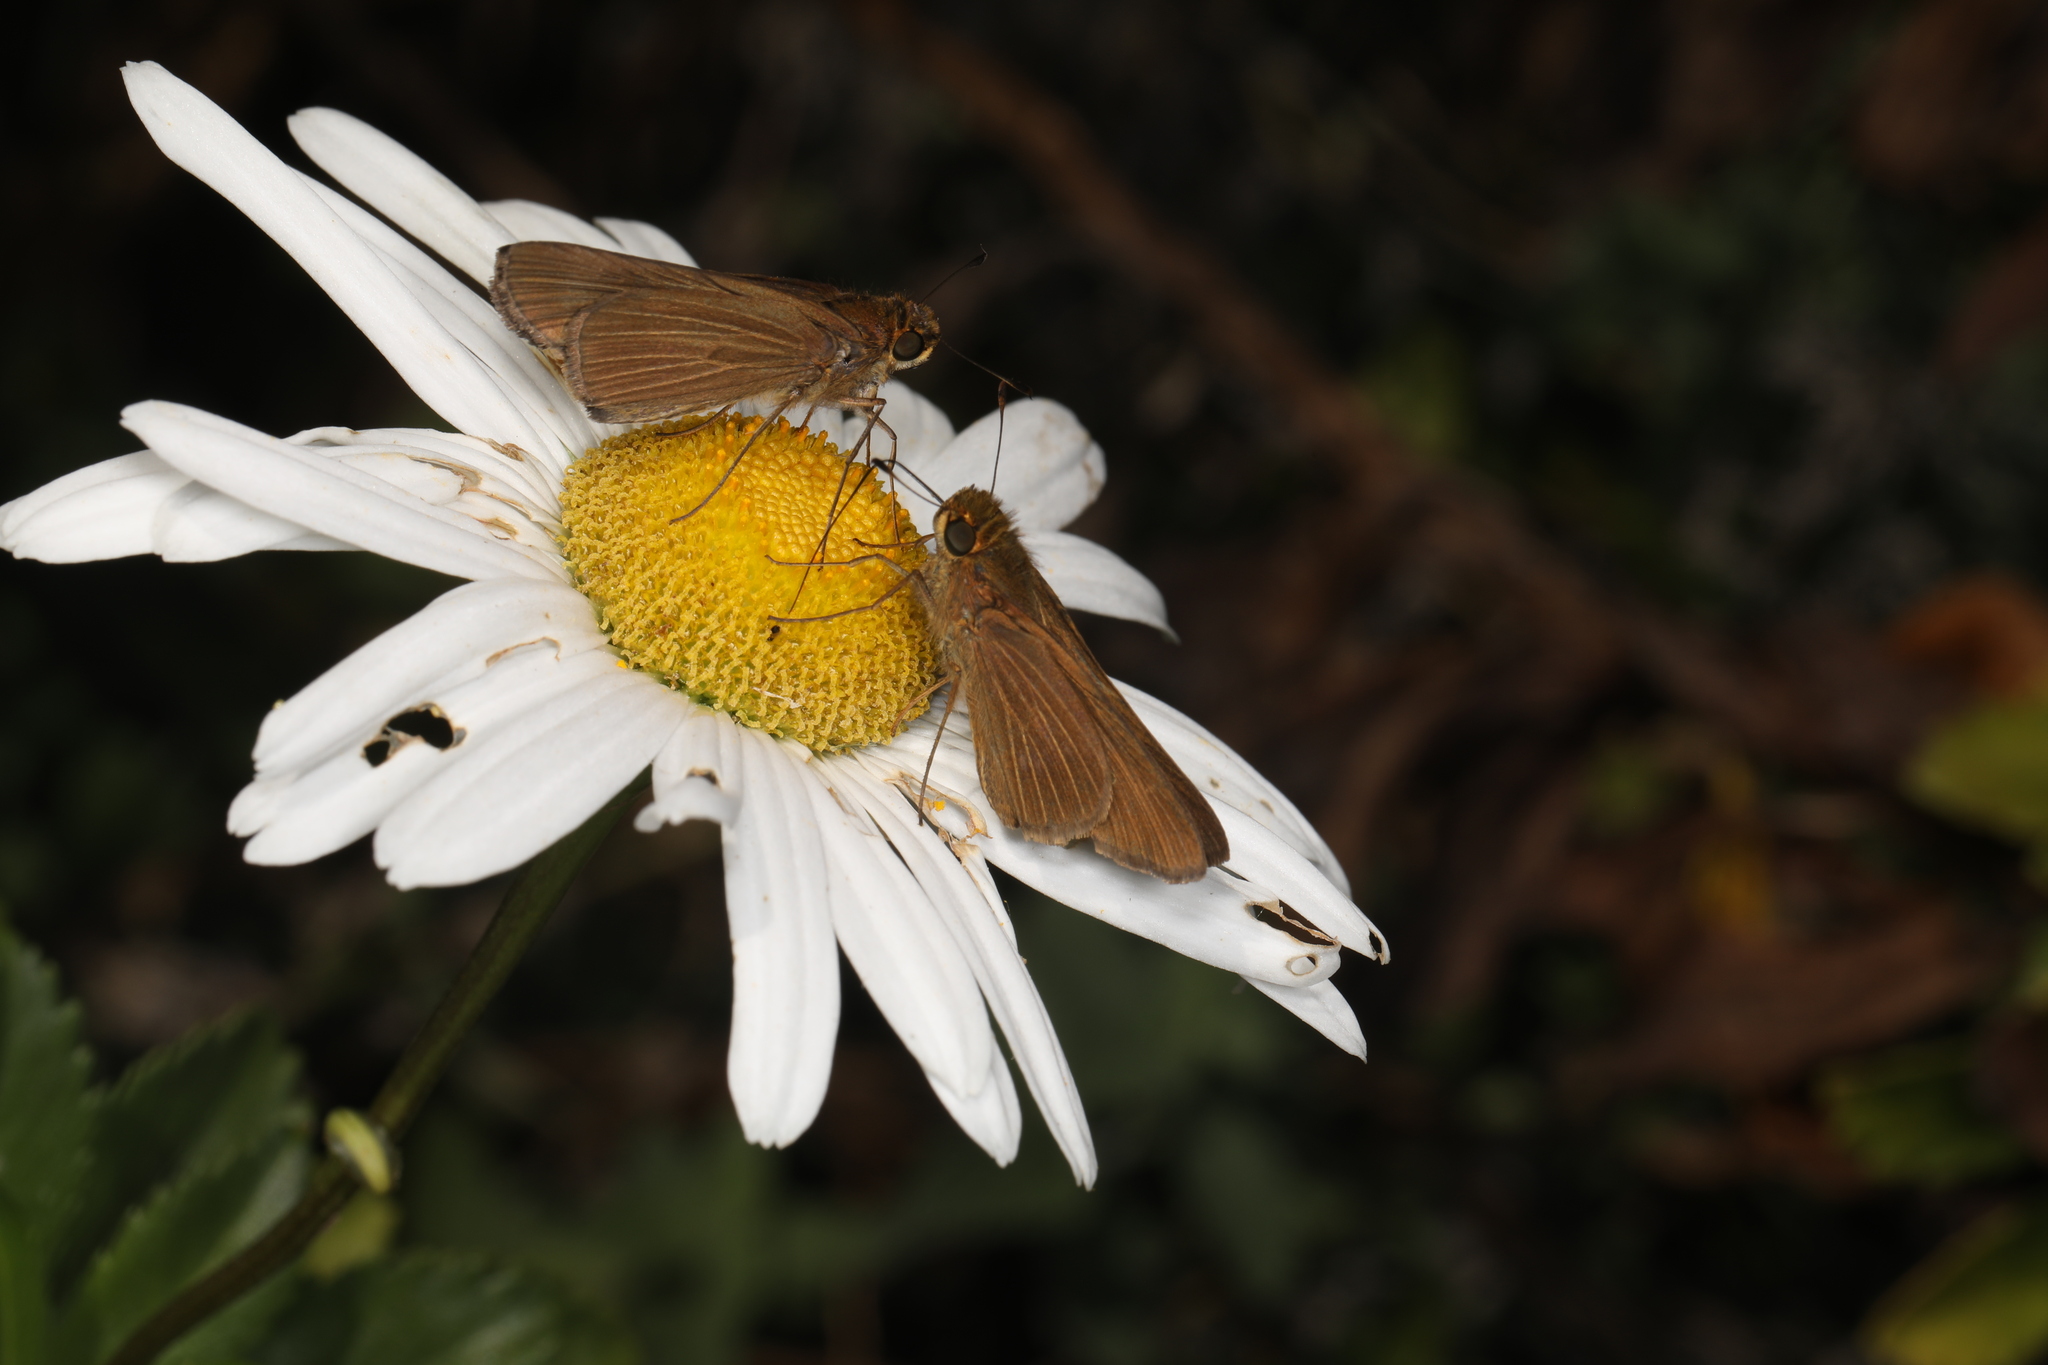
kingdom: Animalia
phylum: Arthropoda
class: Insecta
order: Lepidoptera
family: Hesperiidae
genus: Panoquina
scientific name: Panoquina ocola
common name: Ocola skipper
